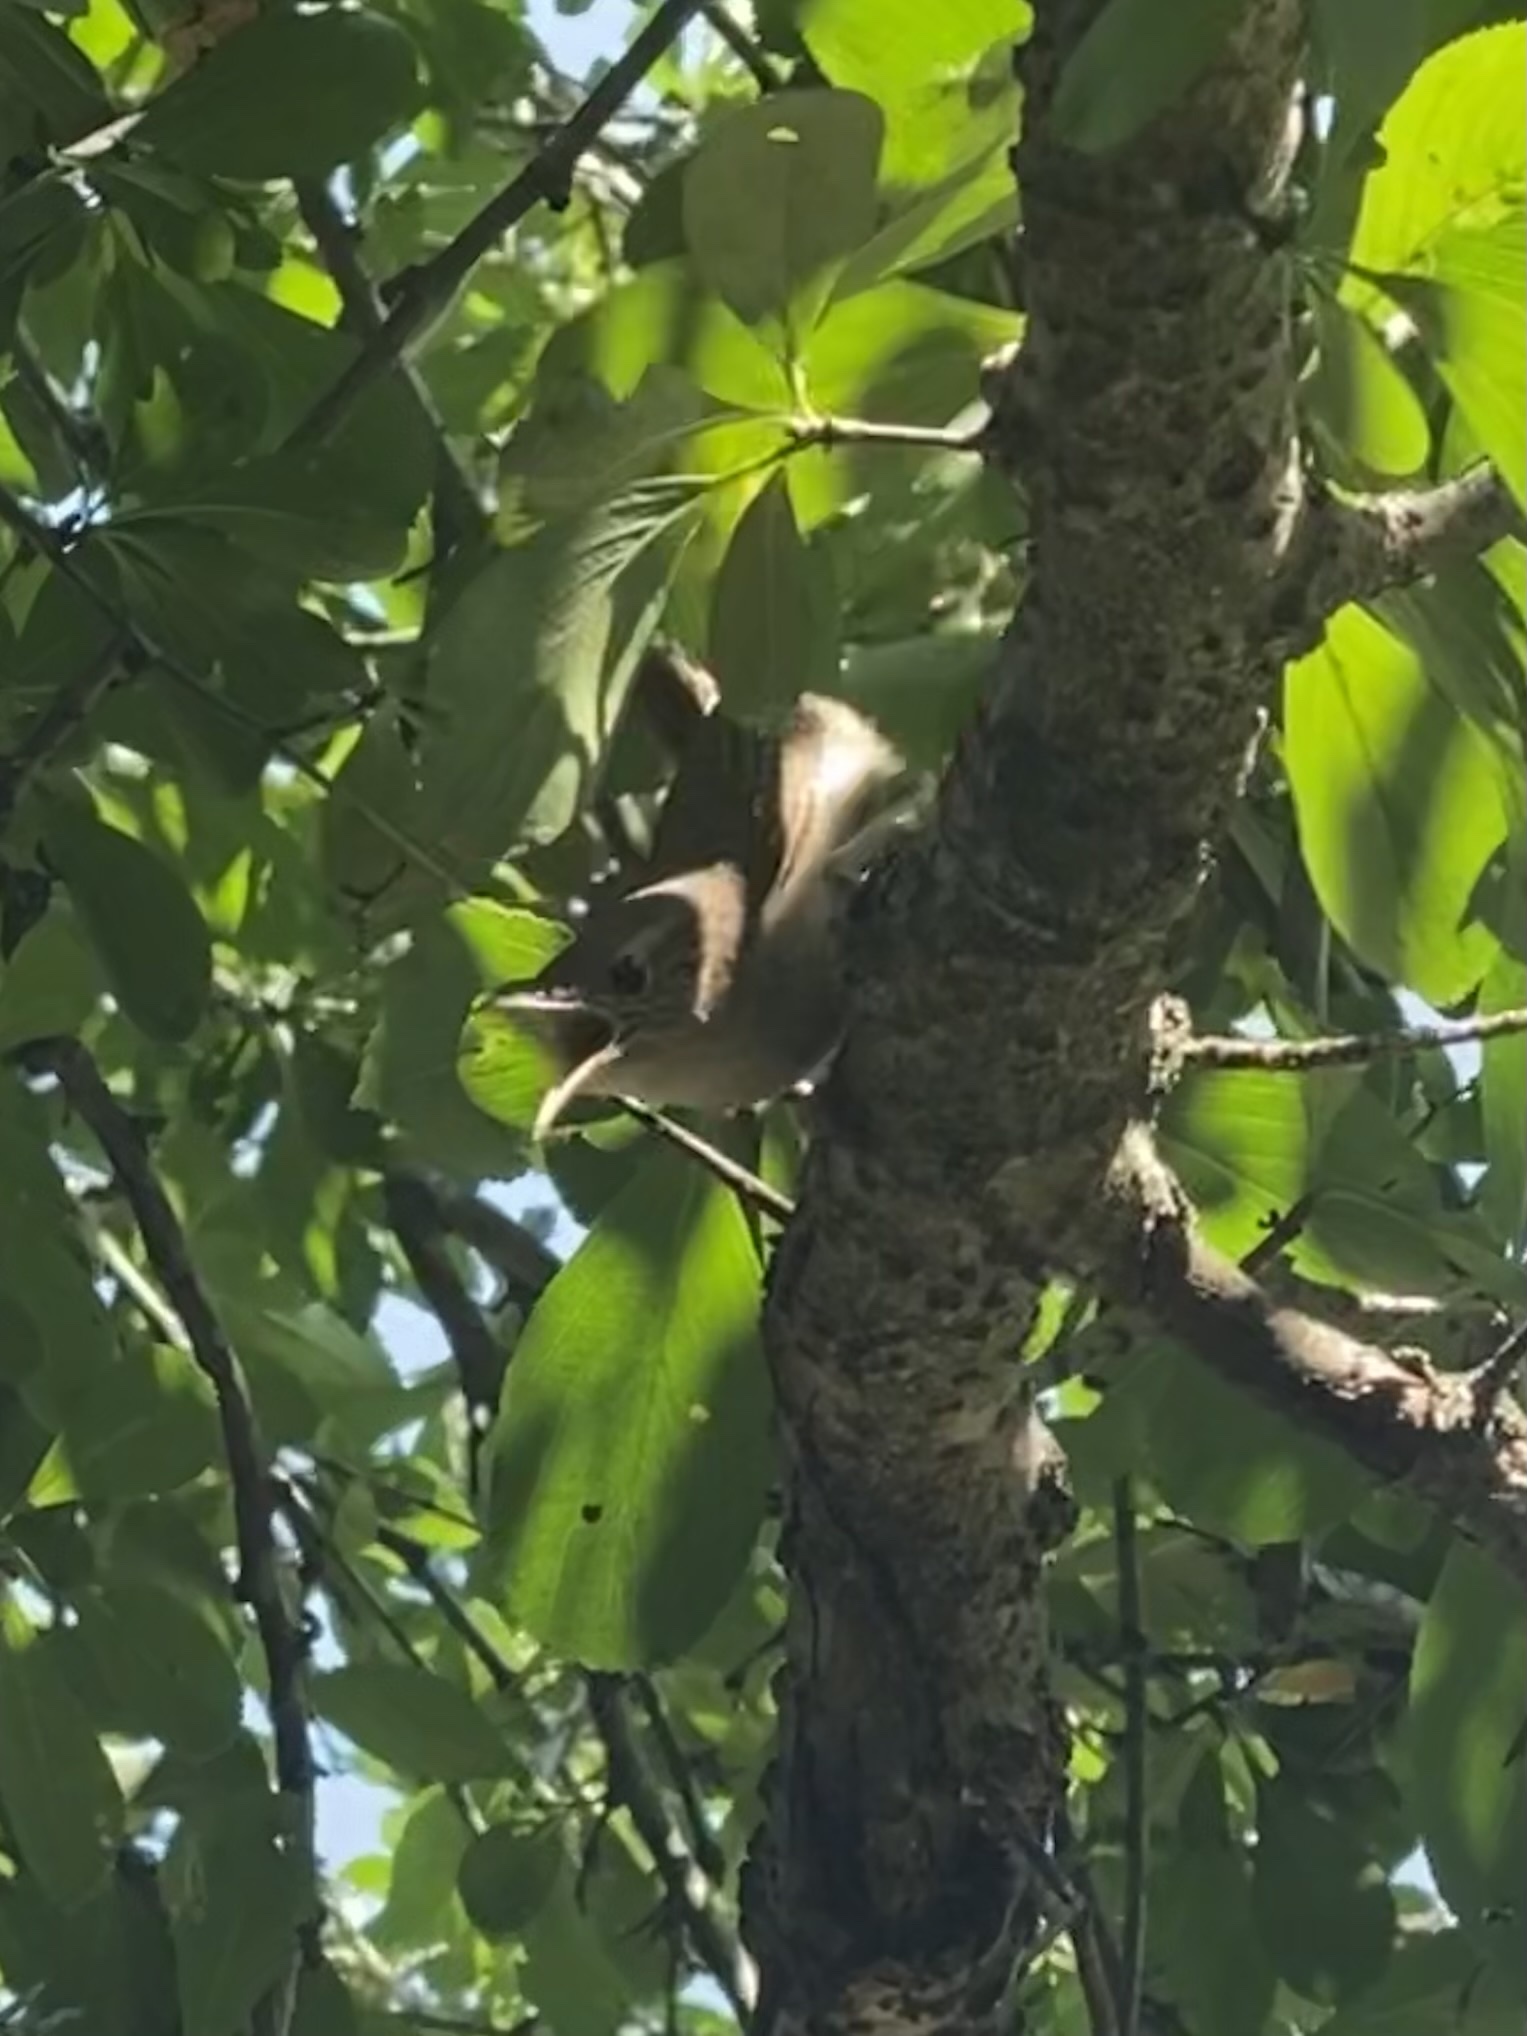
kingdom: Animalia
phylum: Chordata
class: Aves
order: Passeriformes
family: Troglodytidae
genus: Troglodytes
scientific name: Troglodytes aedon
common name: House wren
